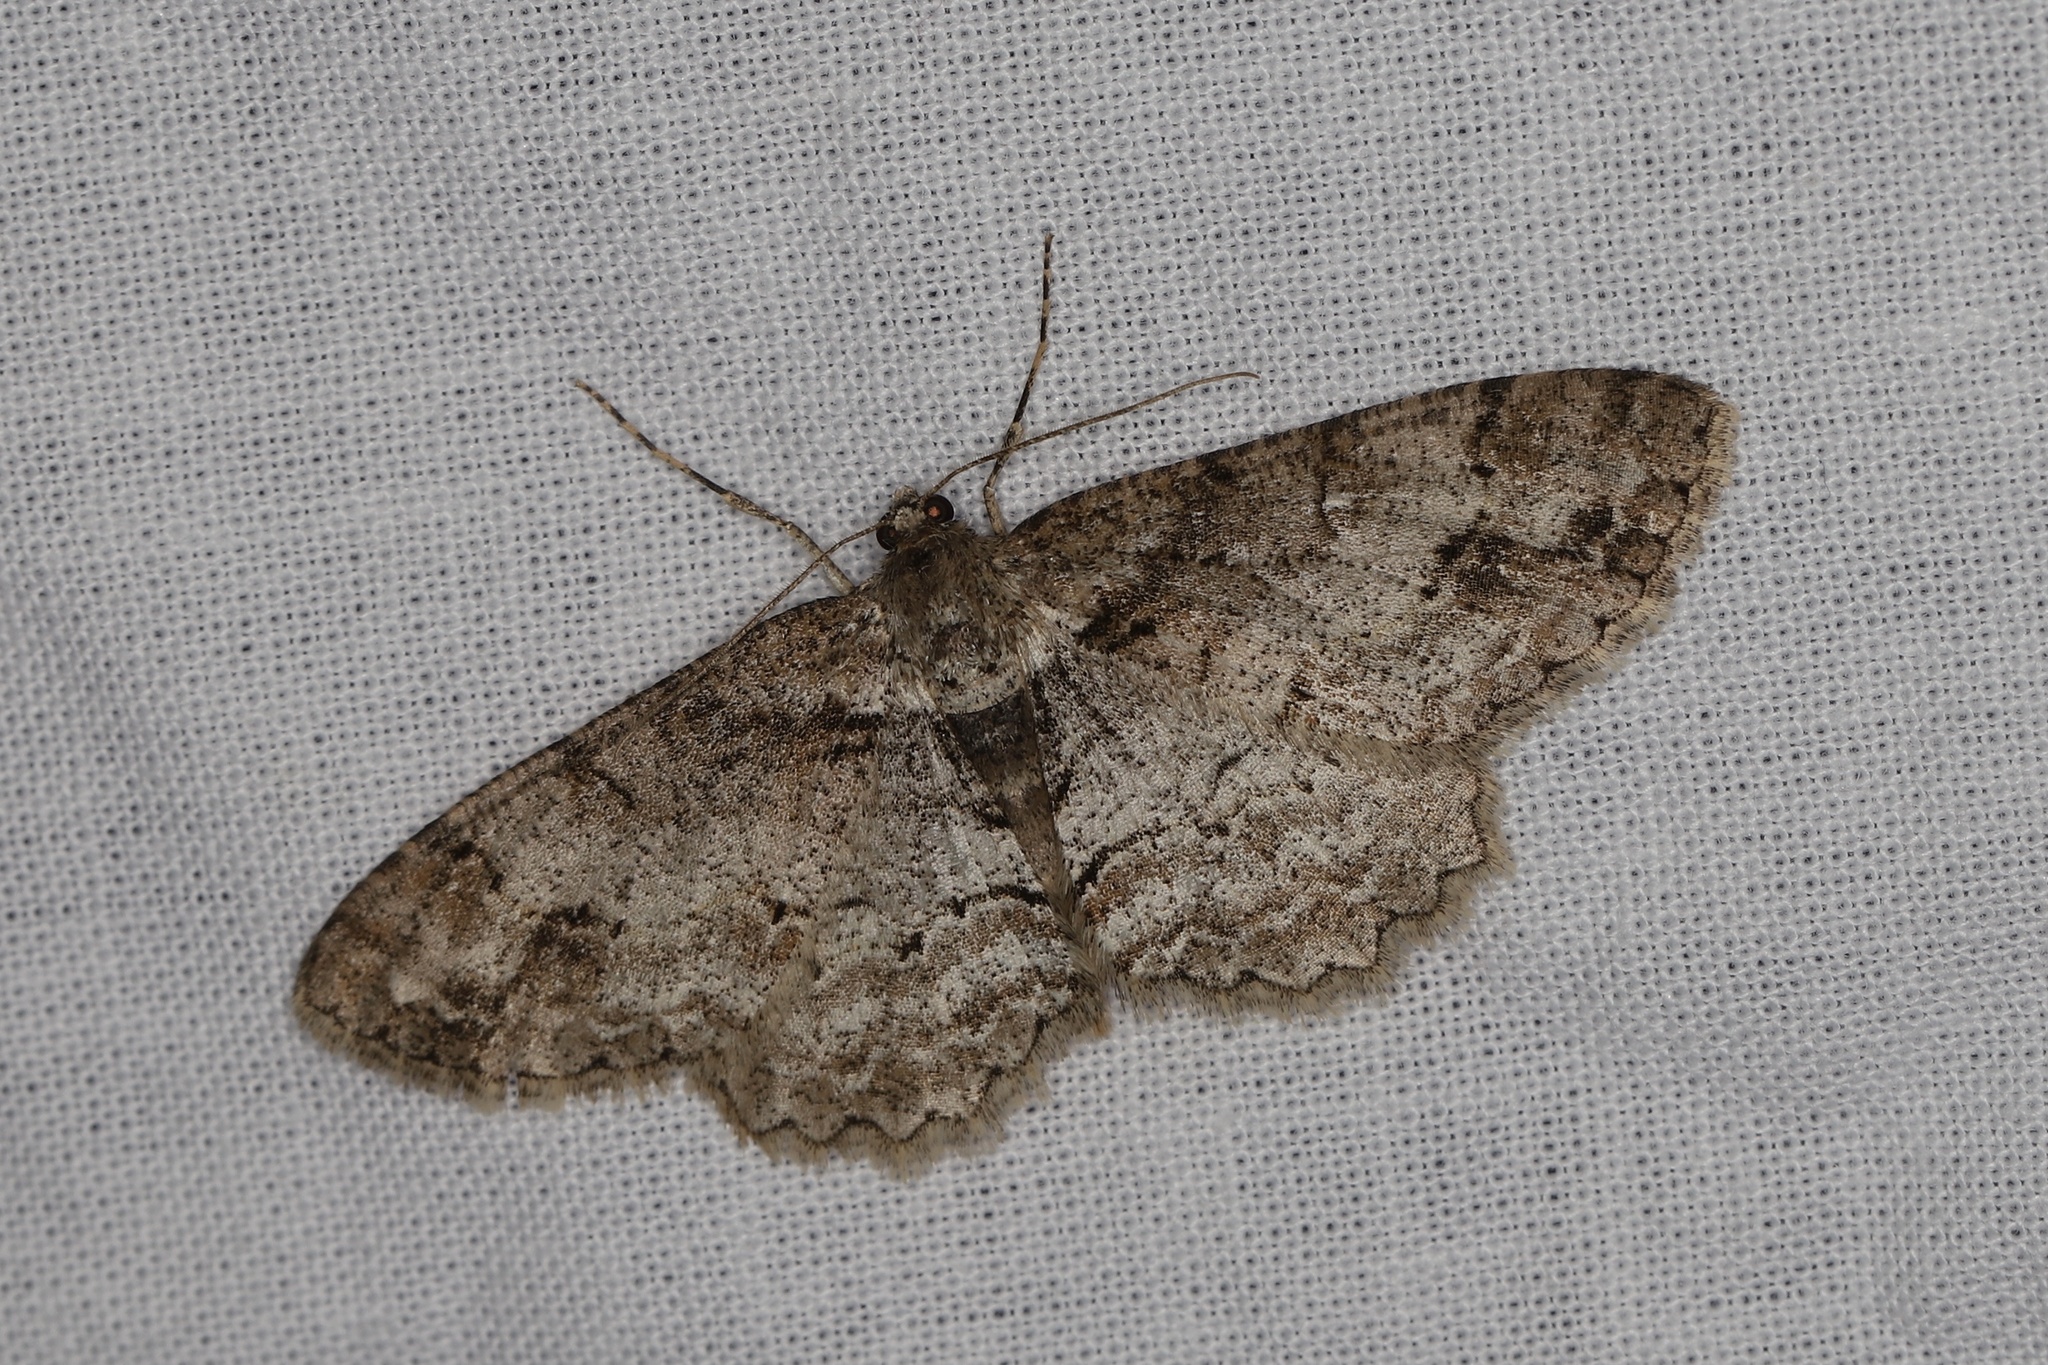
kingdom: Animalia
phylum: Arthropoda
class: Insecta
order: Lepidoptera
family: Geometridae
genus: Paradarisa
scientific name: Paradarisa consonaria
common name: Square spot
